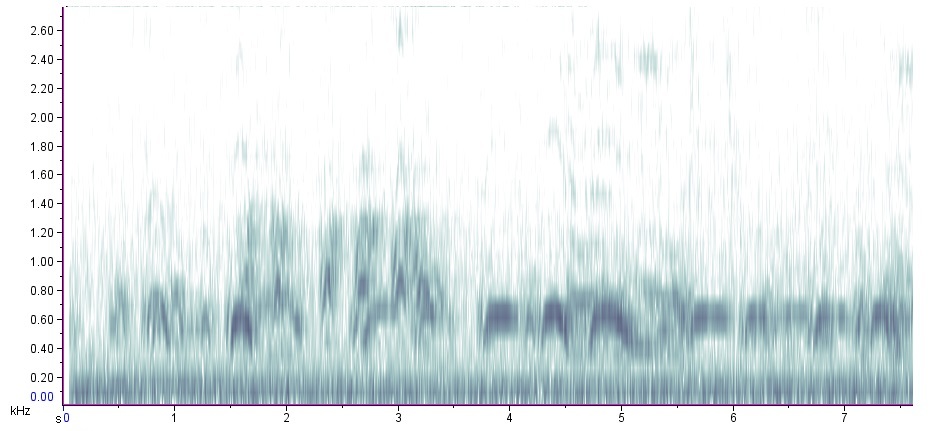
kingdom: Animalia
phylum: Chordata
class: Aves
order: Strigiformes
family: Strigidae
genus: Strix
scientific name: Strix varia
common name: Barred owl
